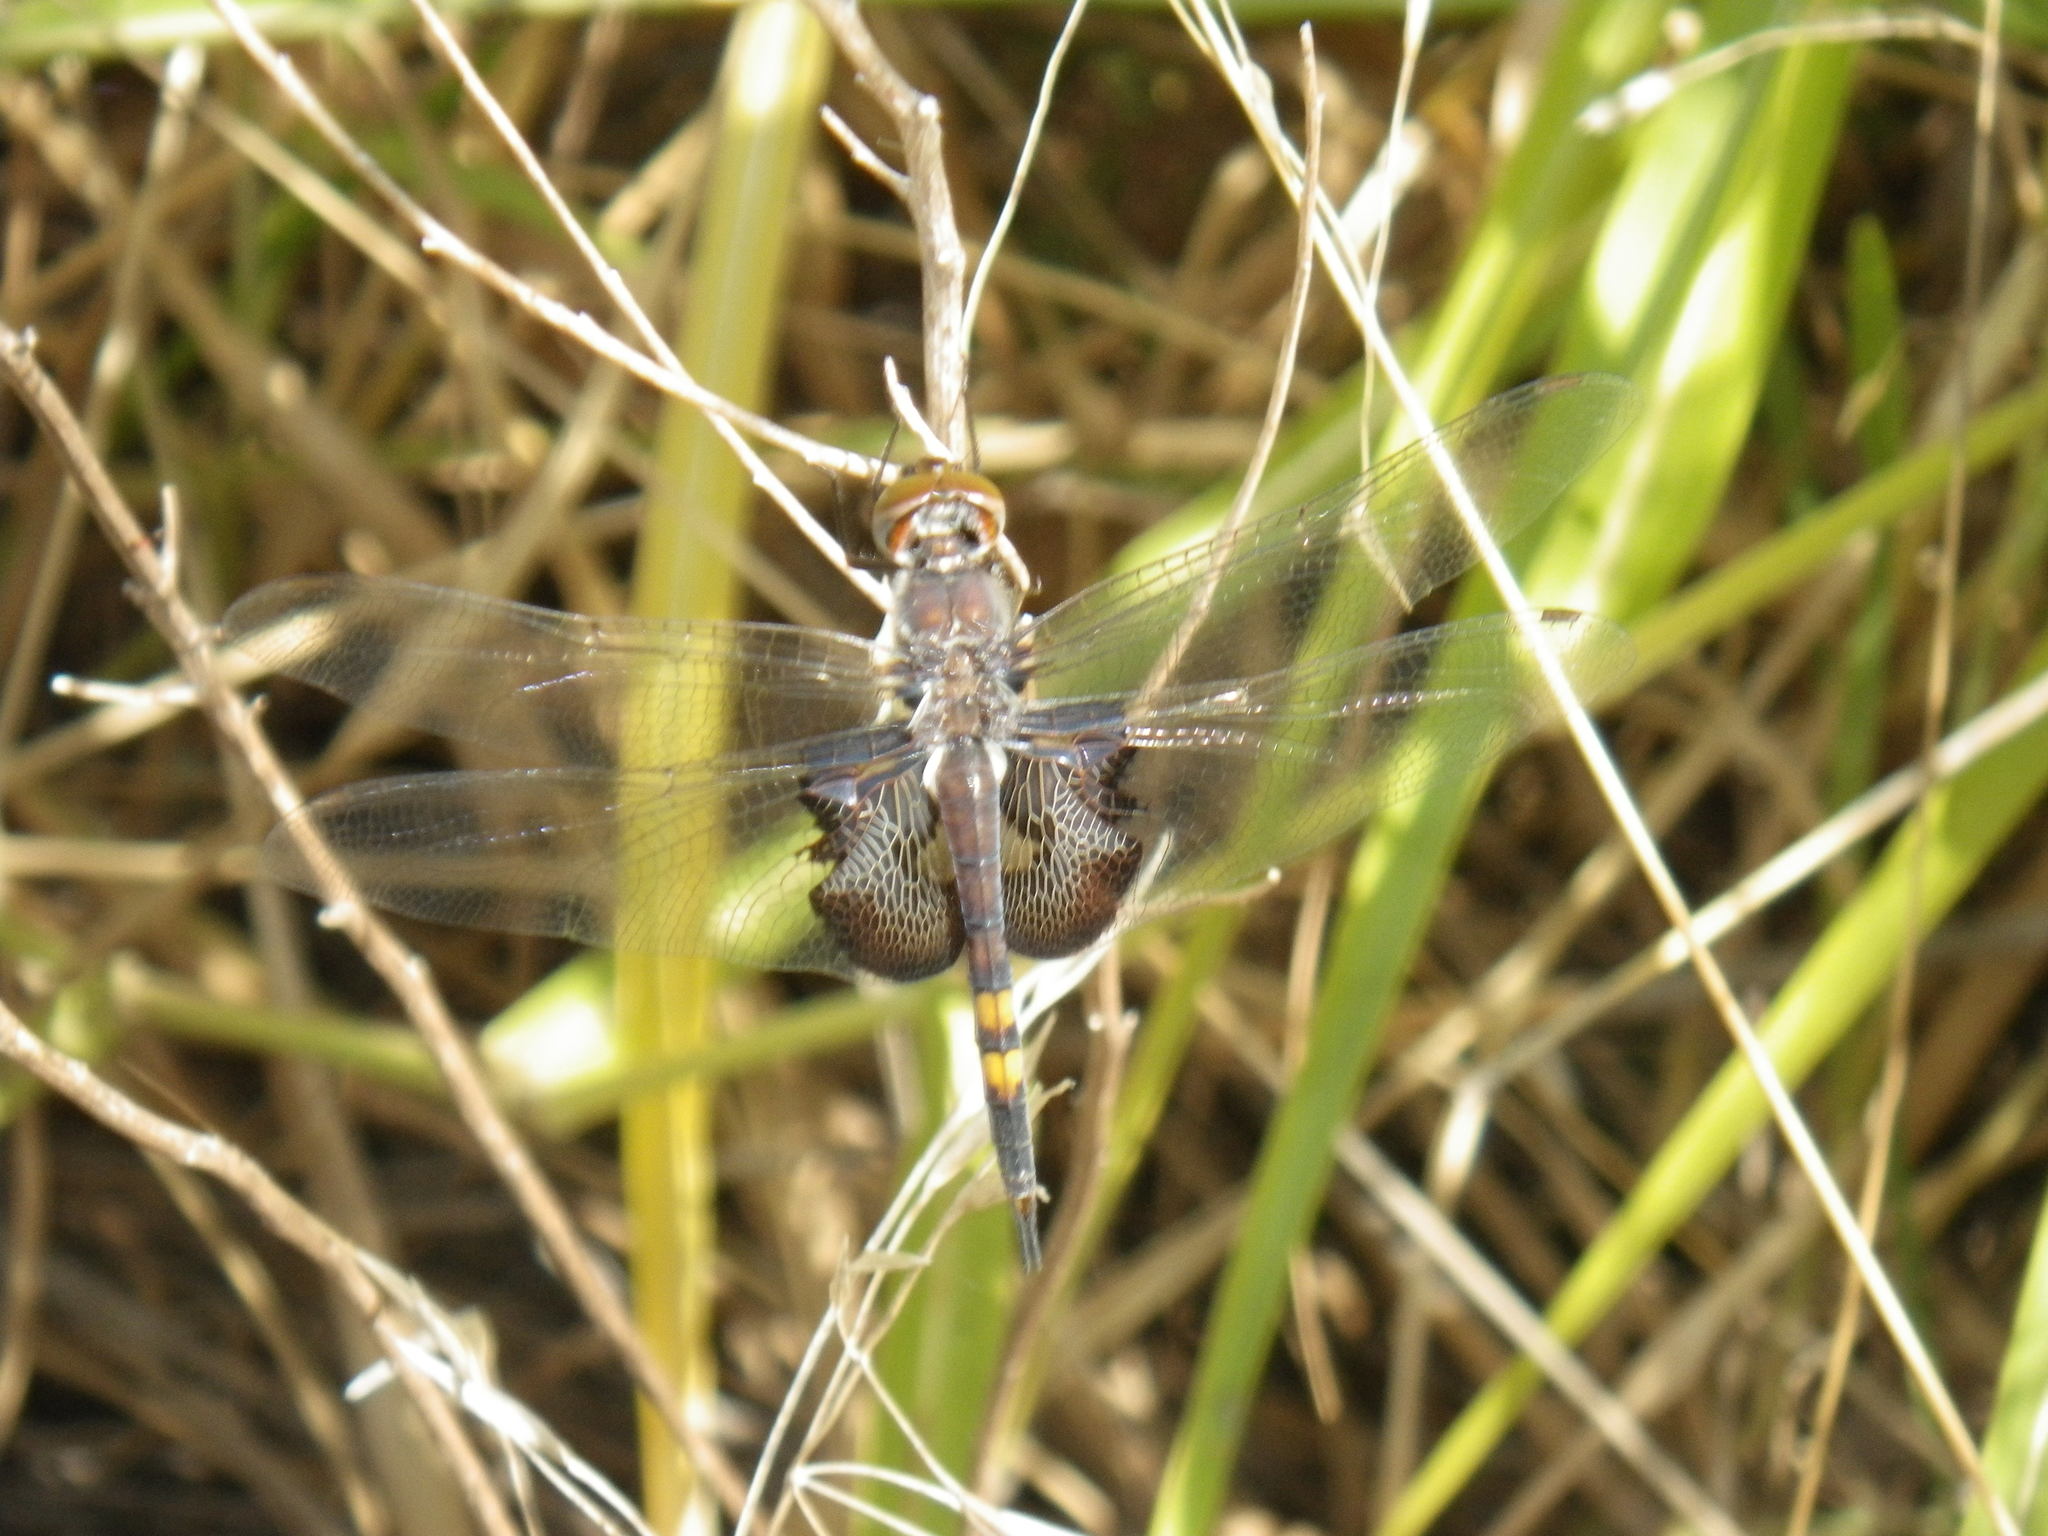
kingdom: Animalia
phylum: Arthropoda
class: Insecta
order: Odonata
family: Libellulidae
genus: Tramea
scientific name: Tramea lacerata
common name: Black saddlebags
